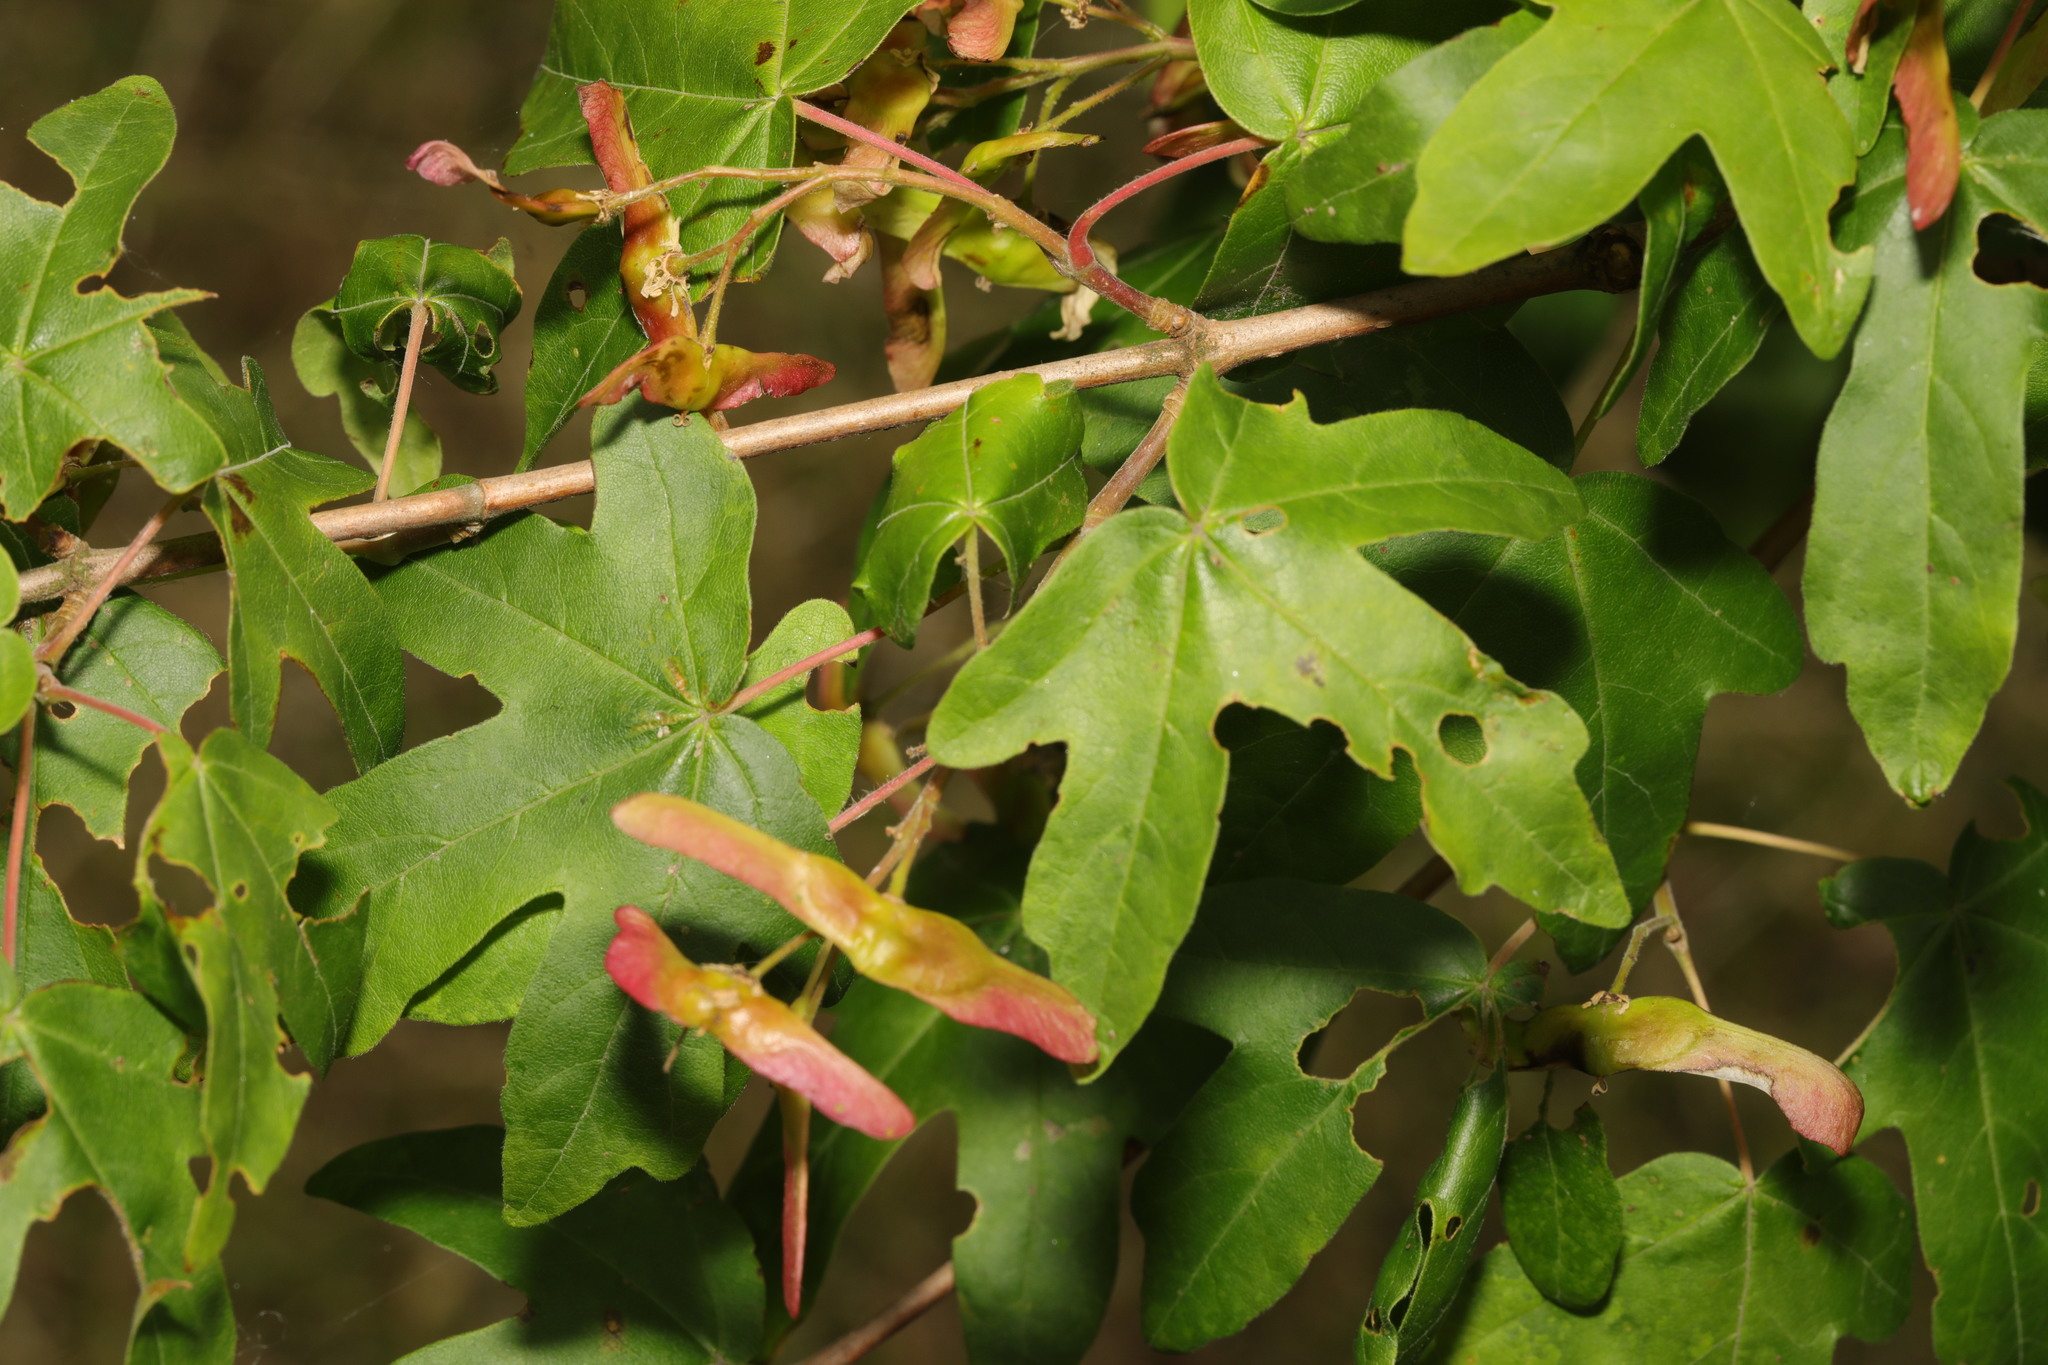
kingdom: Plantae
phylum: Tracheophyta
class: Magnoliopsida
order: Sapindales
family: Sapindaceae
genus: Acer
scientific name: Acer campestre
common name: Field maple
